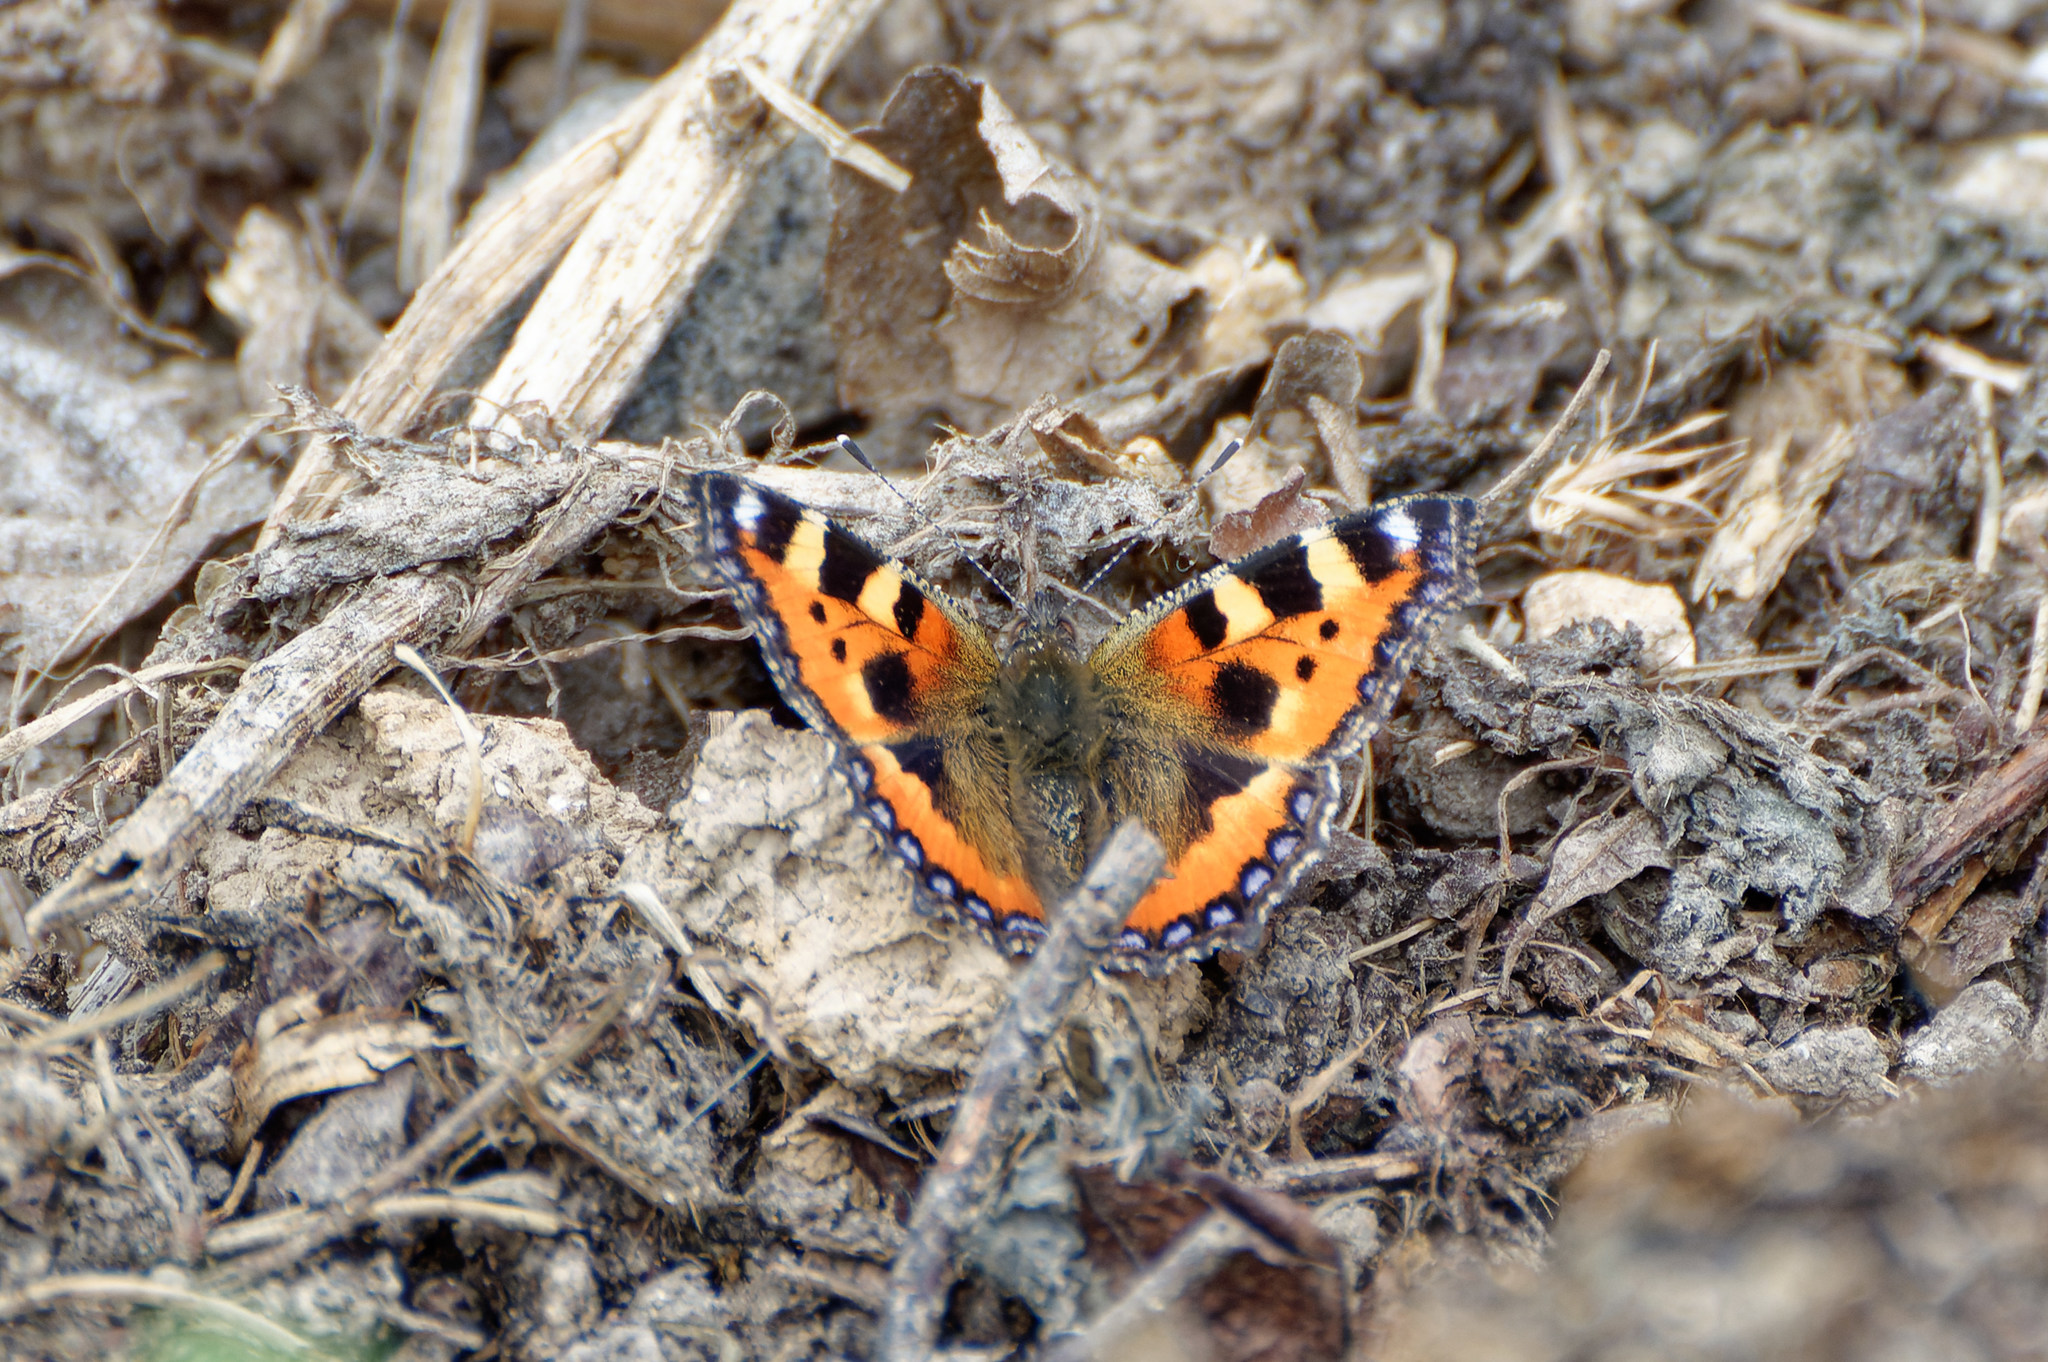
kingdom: Animalia
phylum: Arthropoda
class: Insecta
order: Lepidoptera
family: Nymphalidae
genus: Aglais
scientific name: Aglais urticae
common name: Small tortoiseshell
